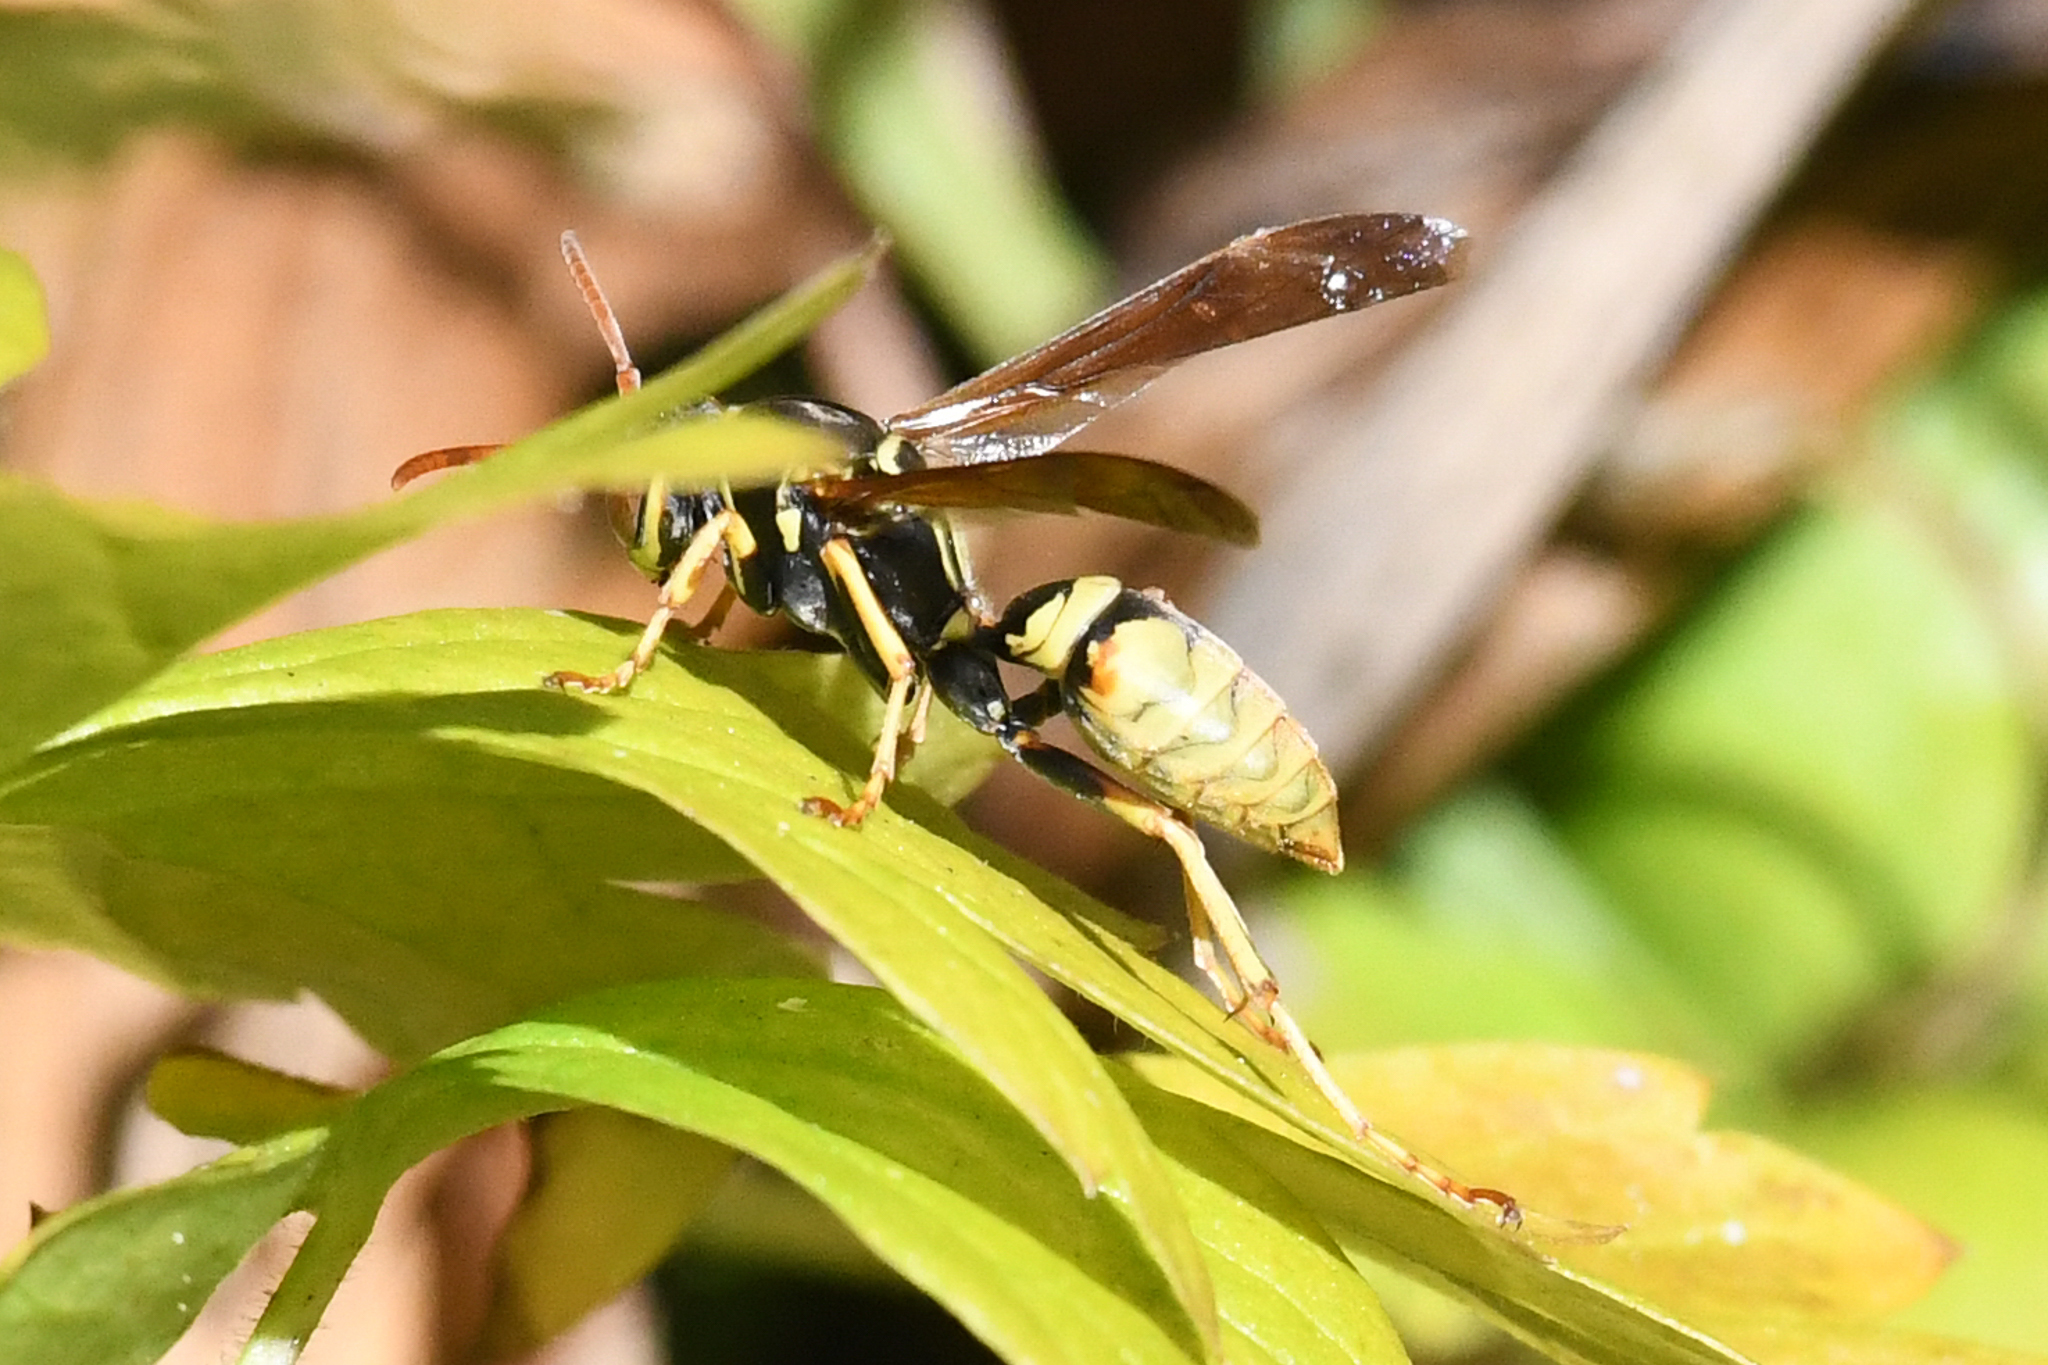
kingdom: Animalia
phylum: Arthropoda
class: Insecta
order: Hymenoptera
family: Eumenidae
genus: Polistes
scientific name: Polistes aurifer
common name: Paper wasp
